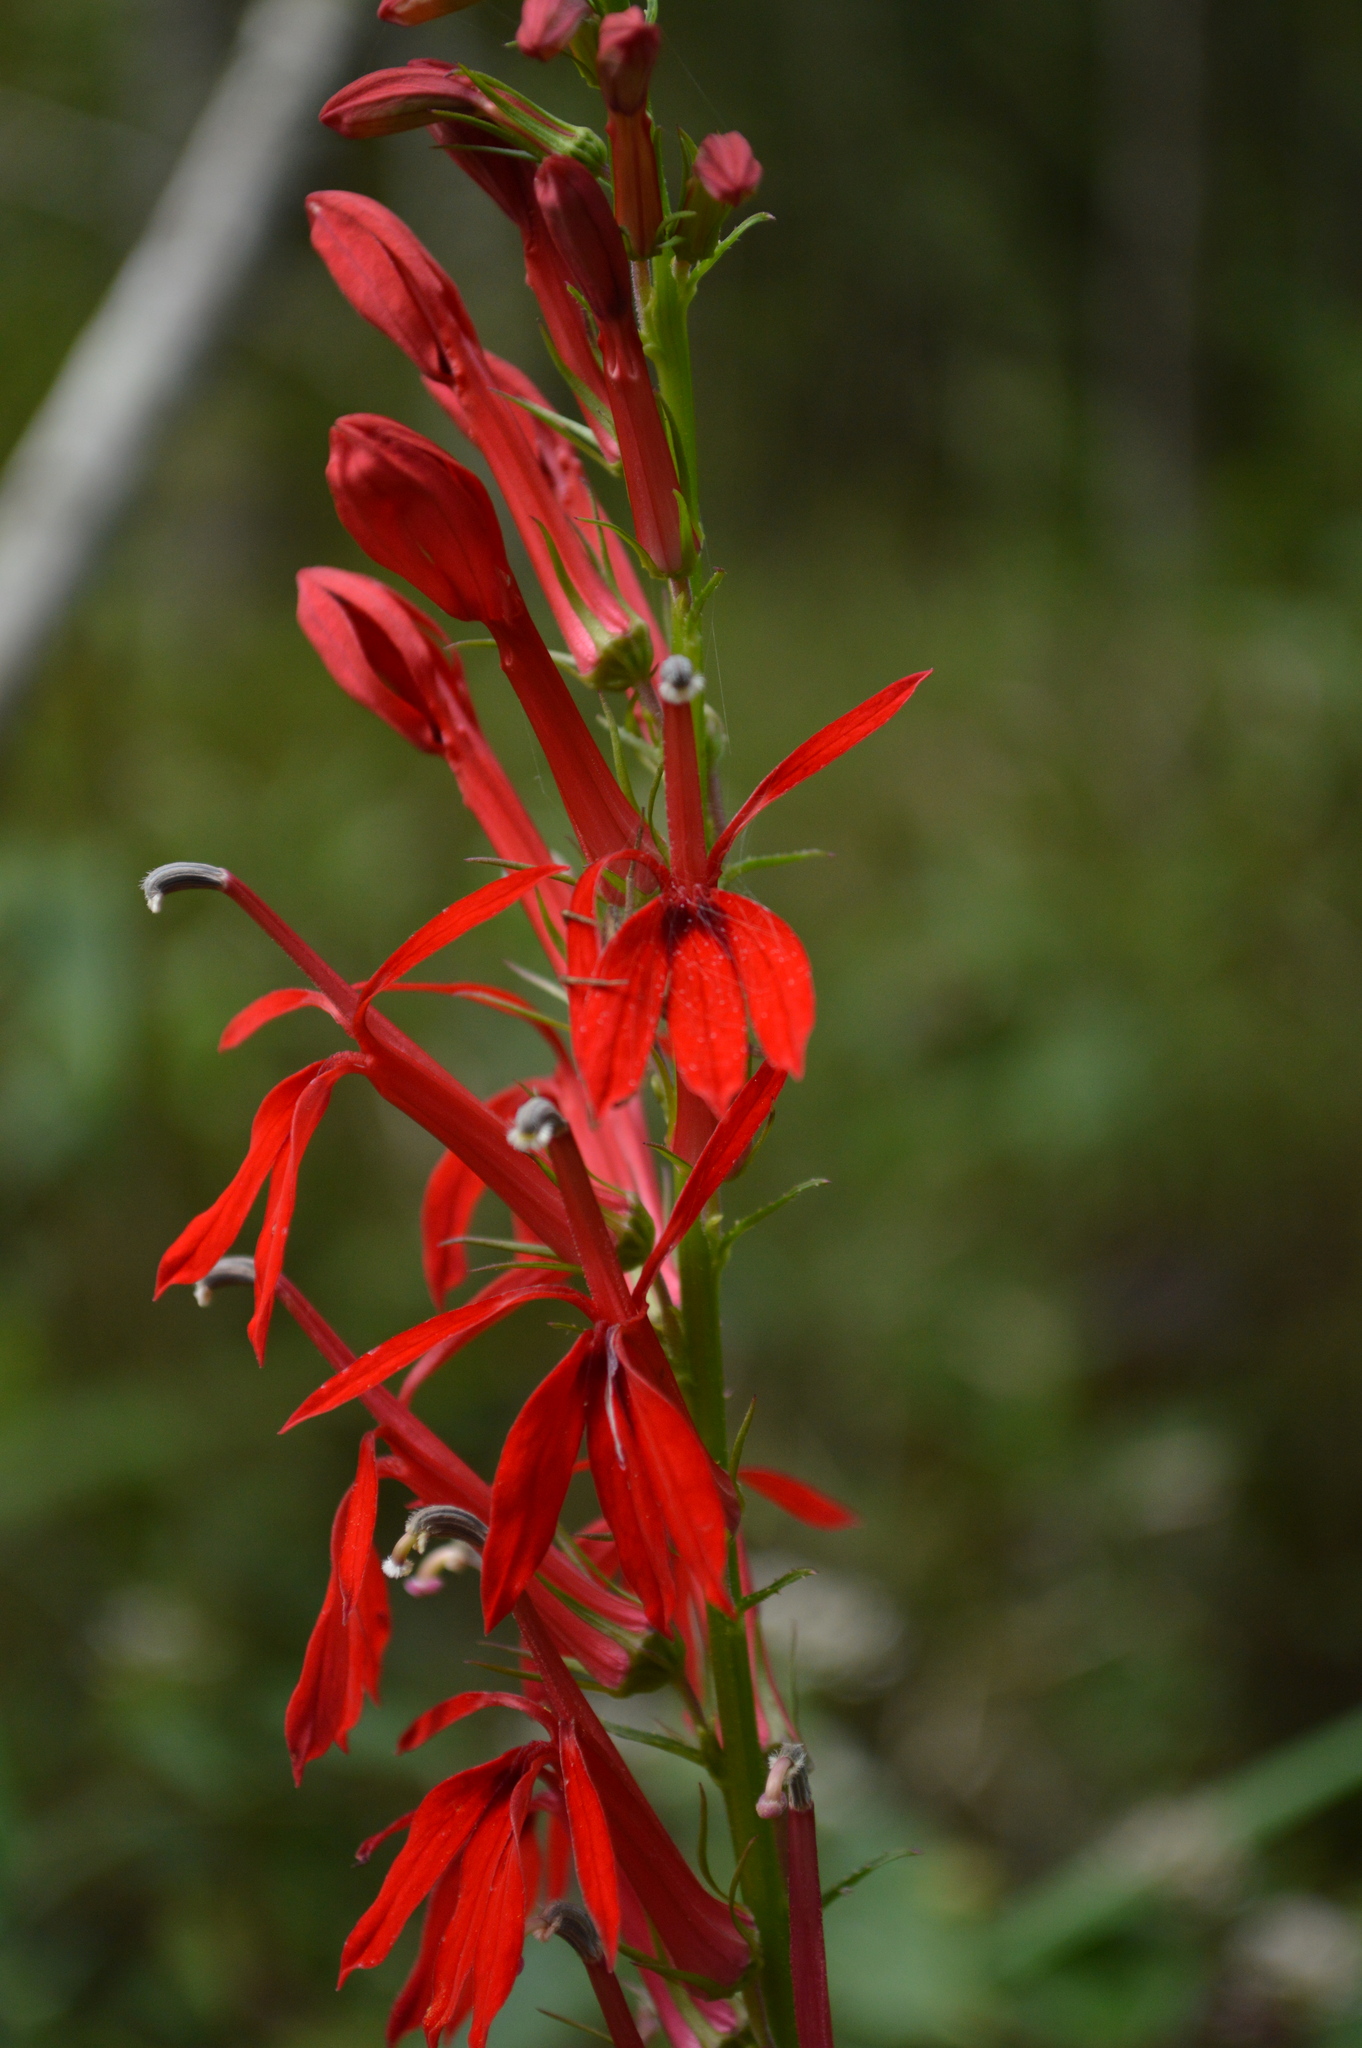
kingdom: Plantae
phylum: Tracheophyta
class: Magnoliopsida
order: Asterales
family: Campanulaceae
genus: Lobelia
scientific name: Lobelia cardinalis
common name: Cardinal flower
